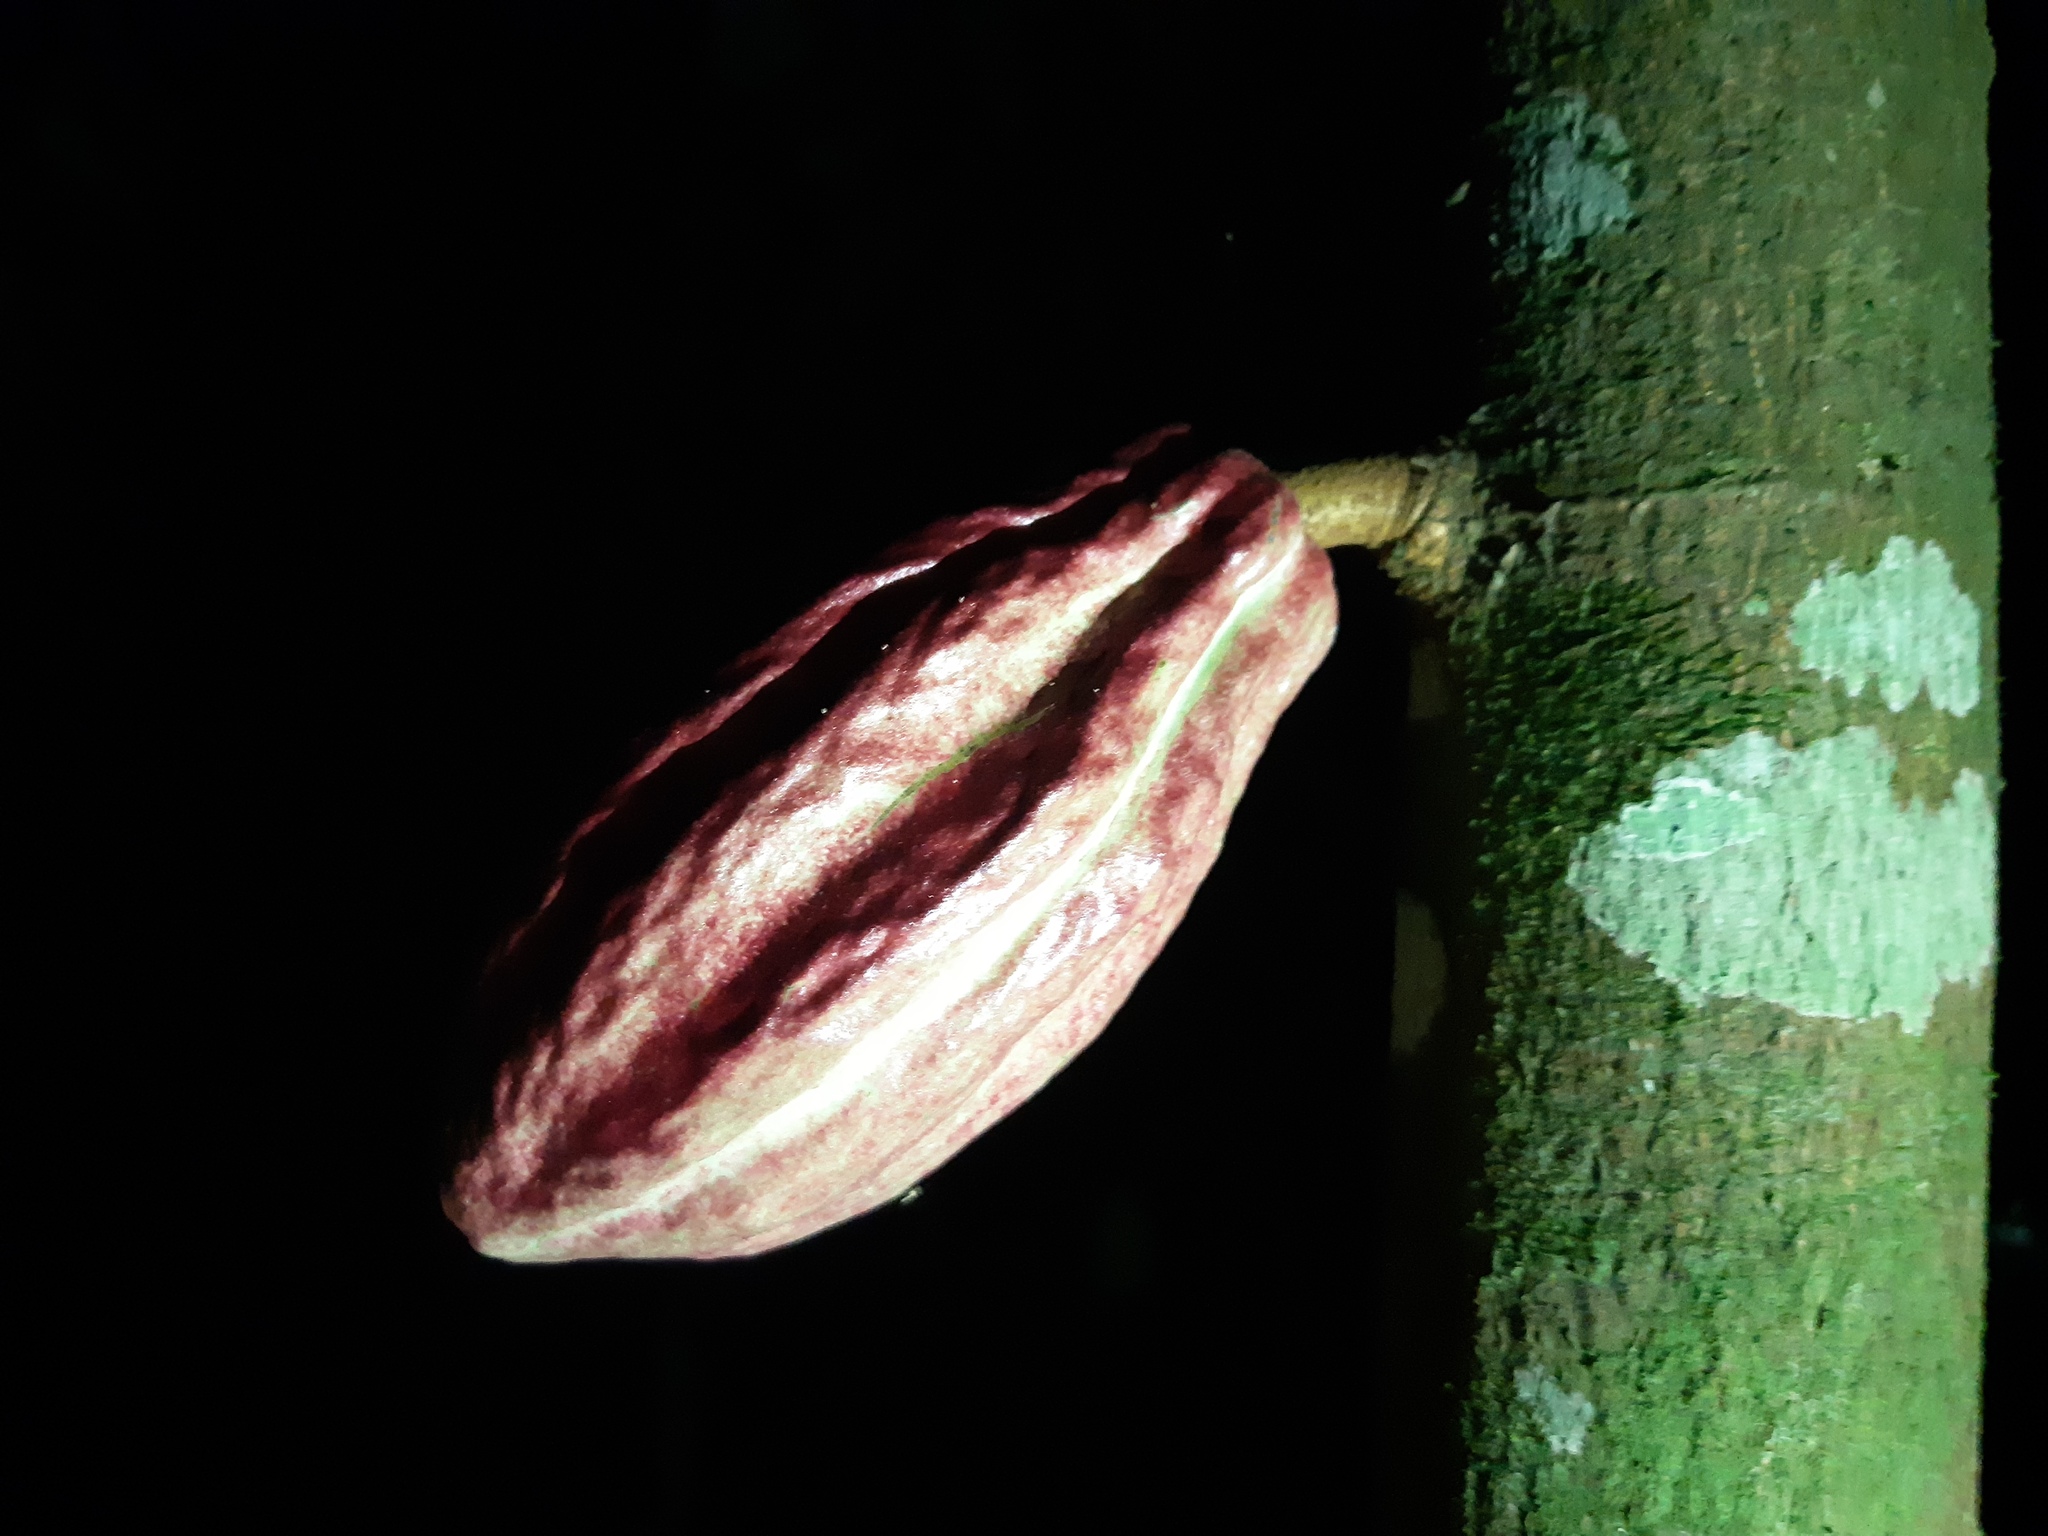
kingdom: Plantae
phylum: Tracheophyta
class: Magnoliopsida
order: Malvales
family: Malvaceae
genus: Theobroma
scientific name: Theobroma cacao
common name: Cocoa
